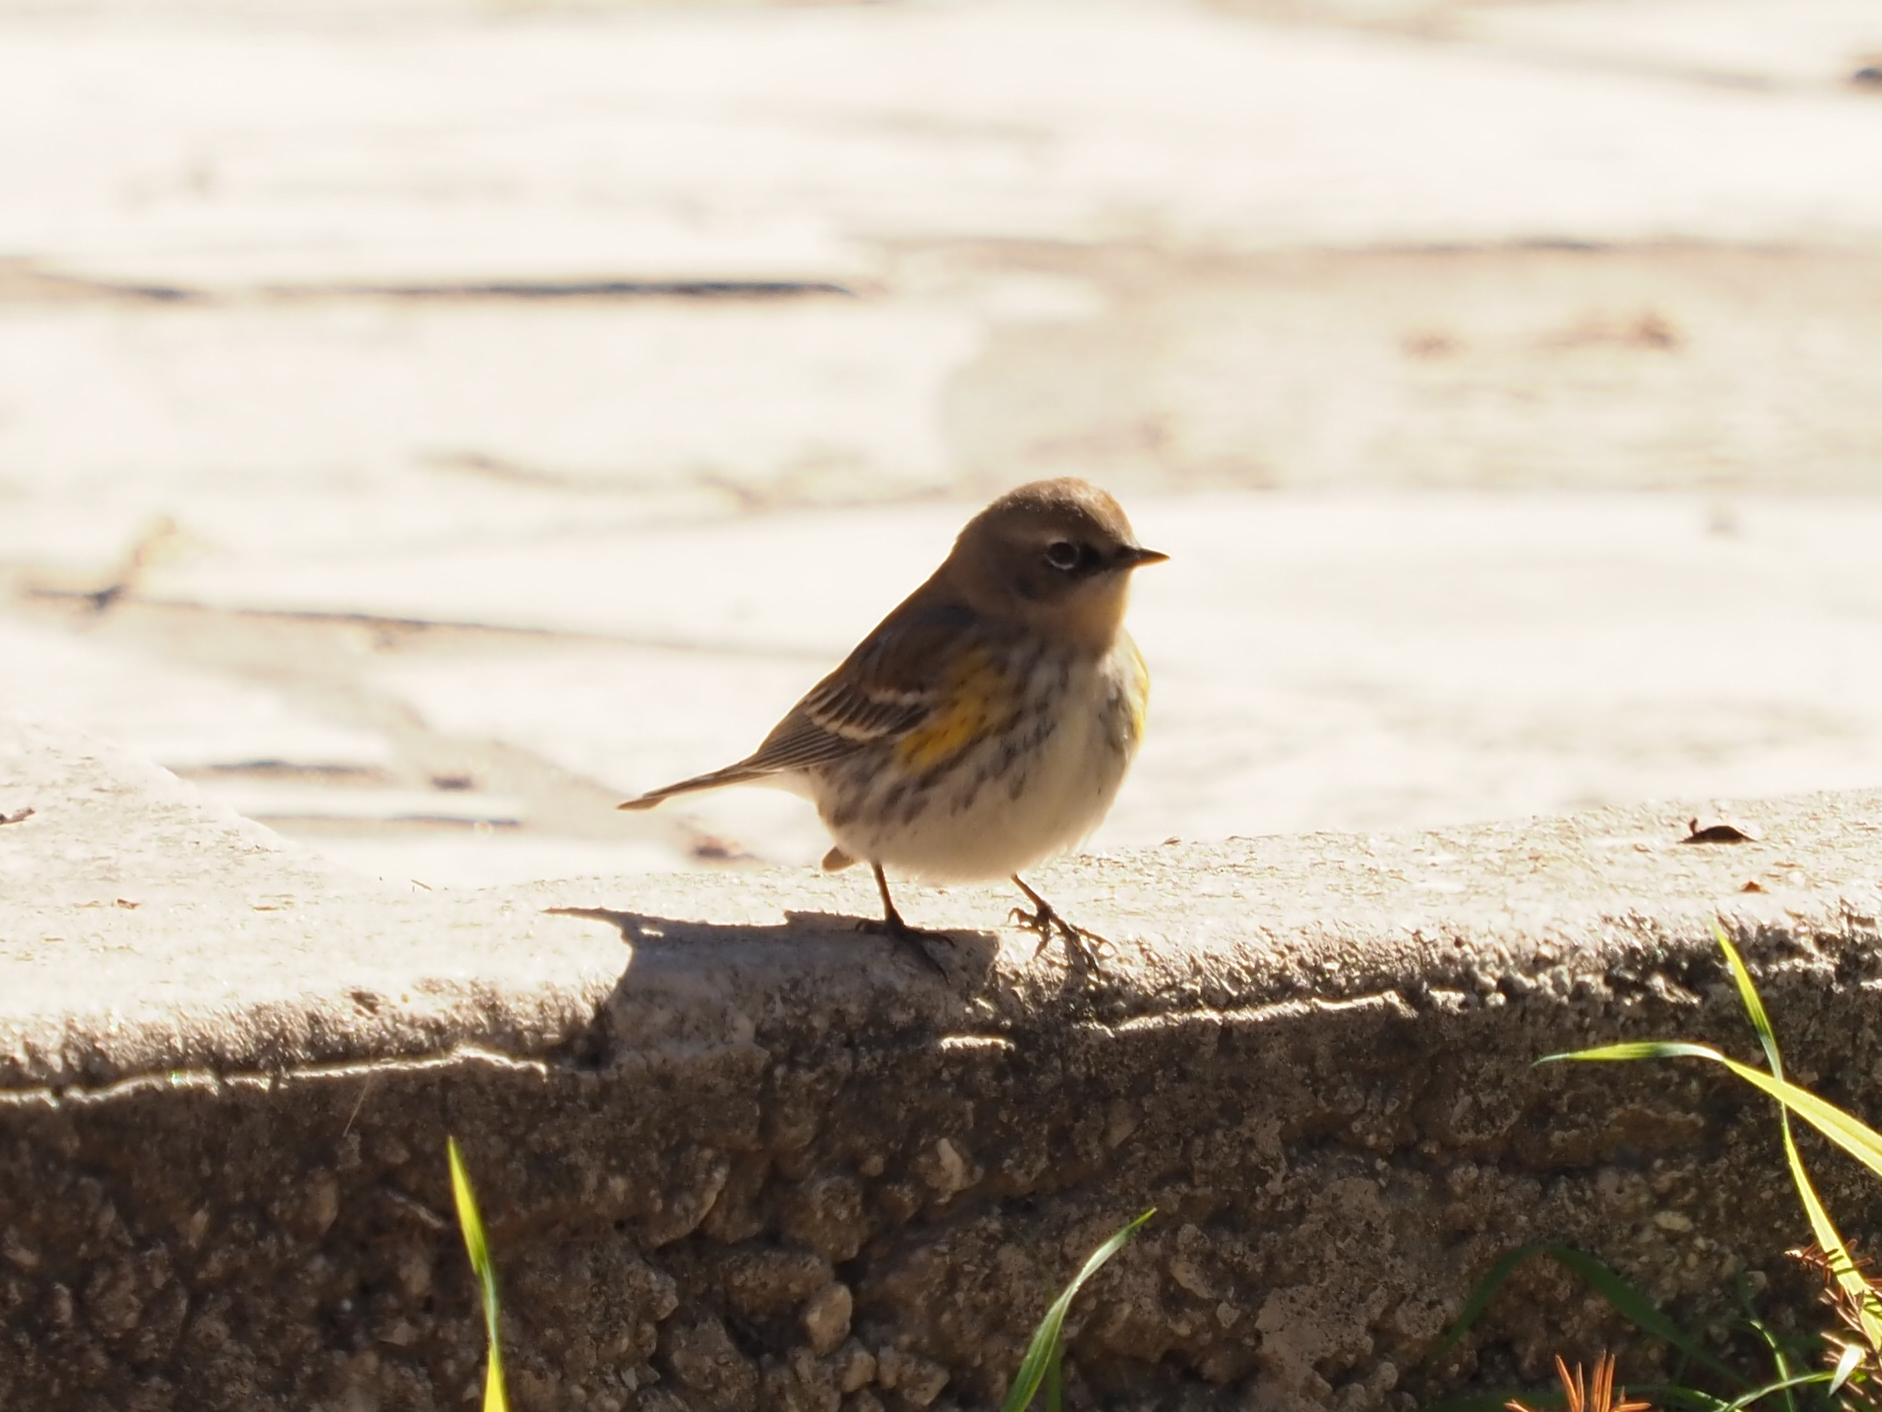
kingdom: Animalia
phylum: Chordata
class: Aves
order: Passeriformes
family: Parulidae
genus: Setophaga
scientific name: Setophaga coronata
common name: Myrtle warbler
